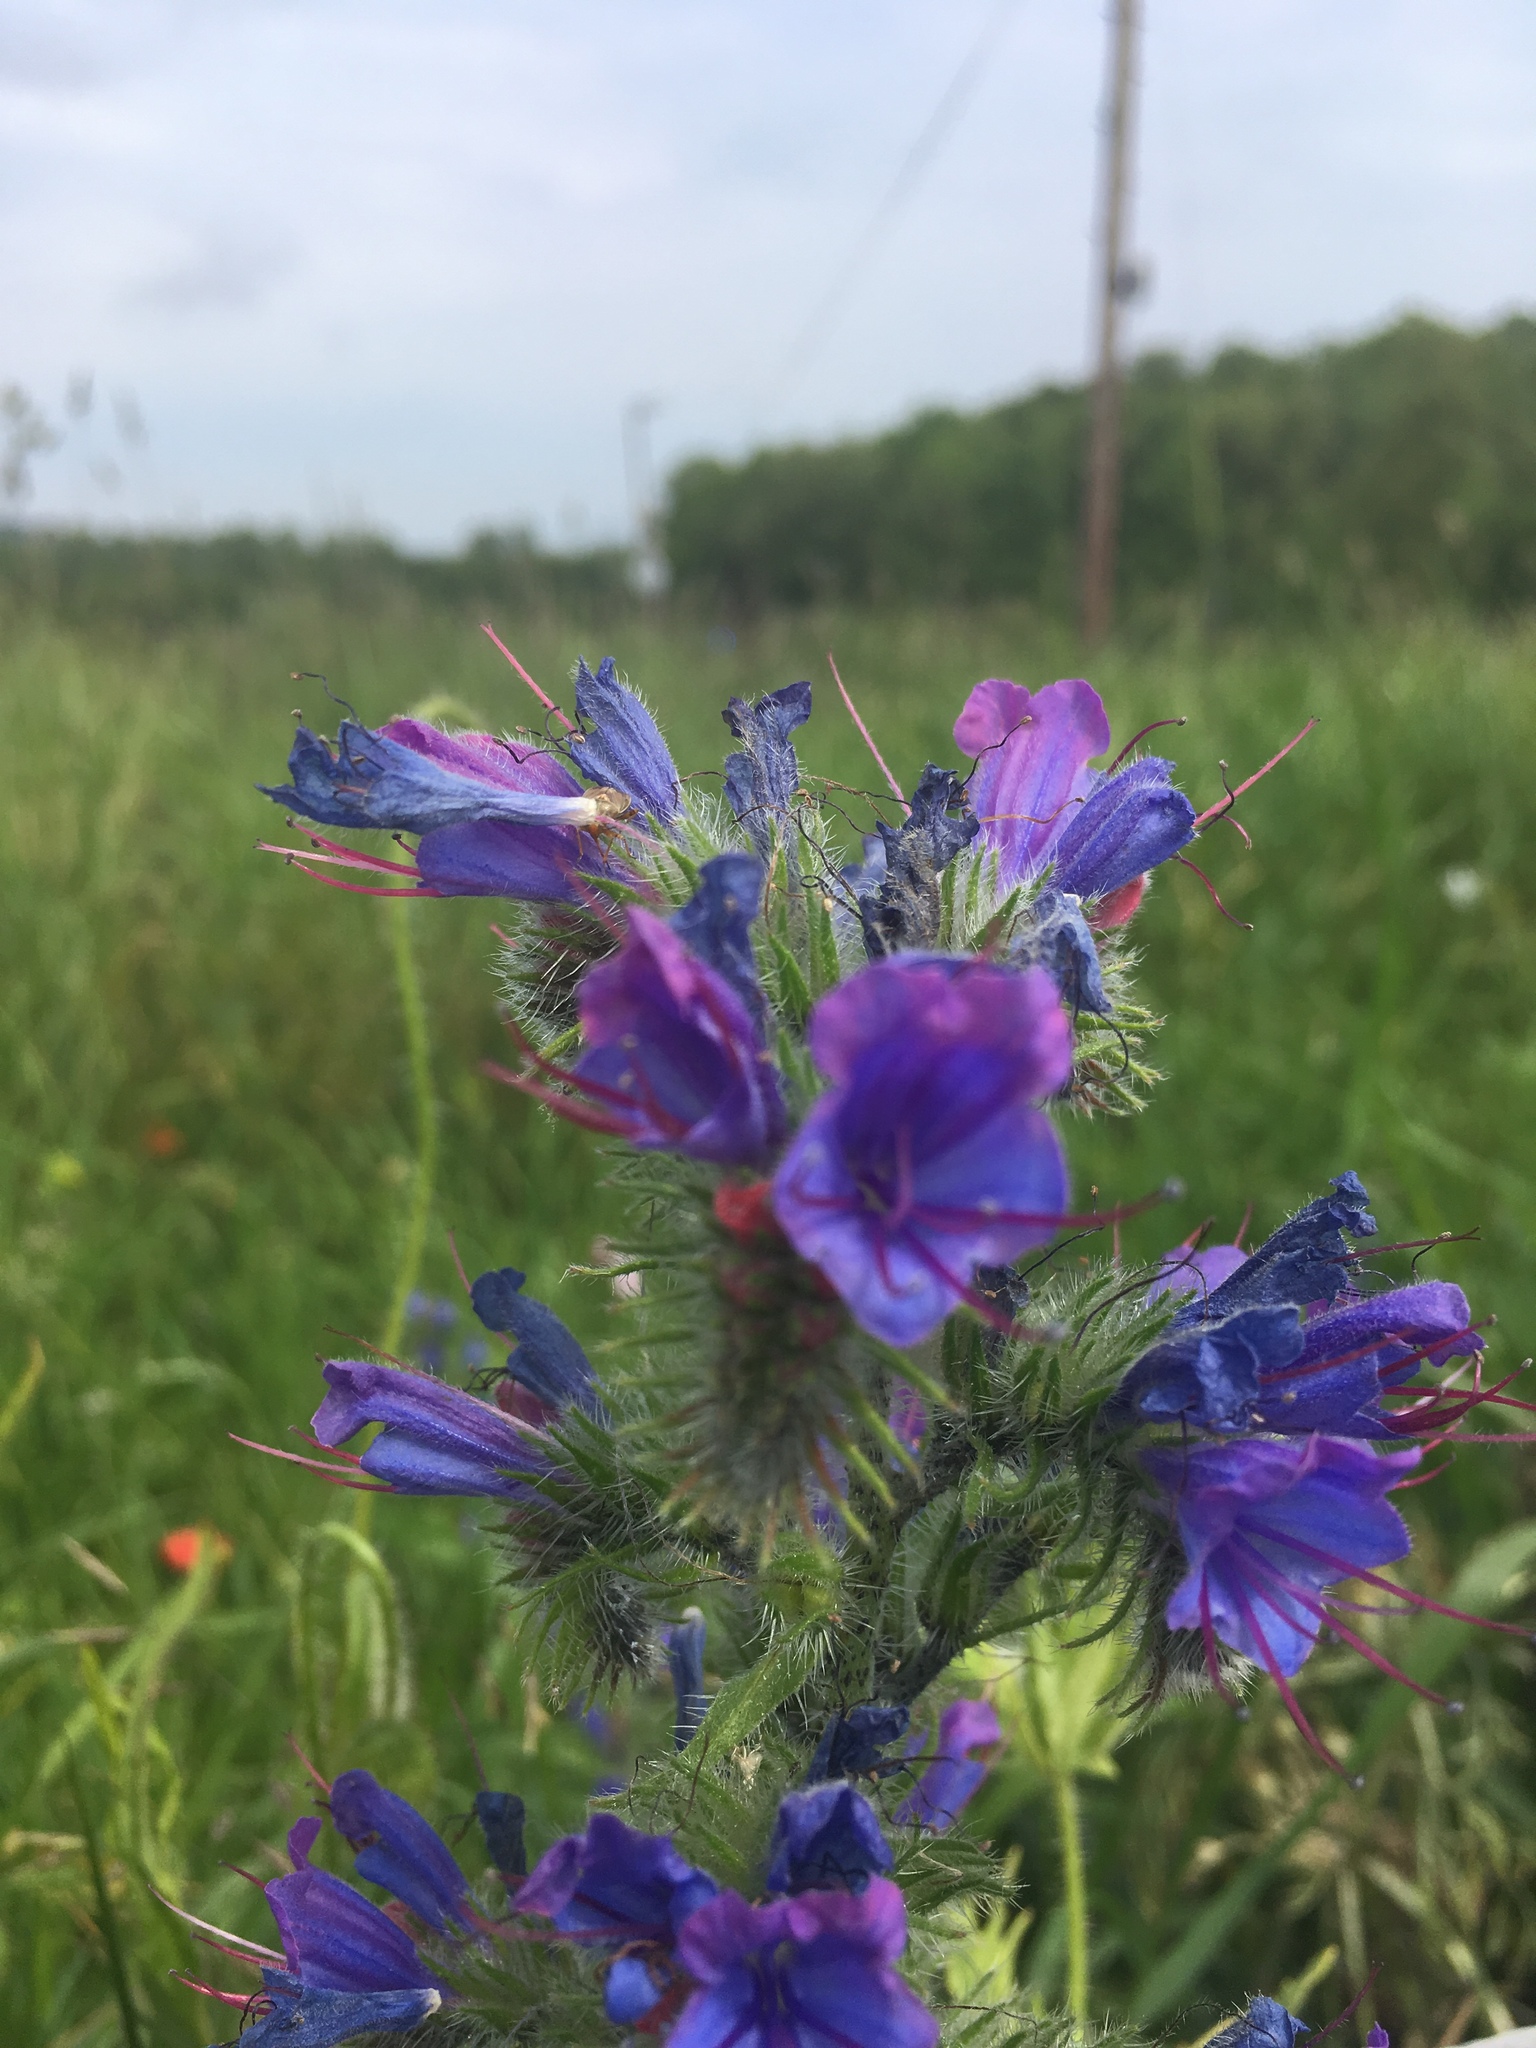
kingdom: Plantae
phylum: Tracheophyta
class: Magnoliopsida
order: Boraginales
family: Boraginaceae
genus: Echium
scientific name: Echium vulgare
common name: Common viper's bugloss
